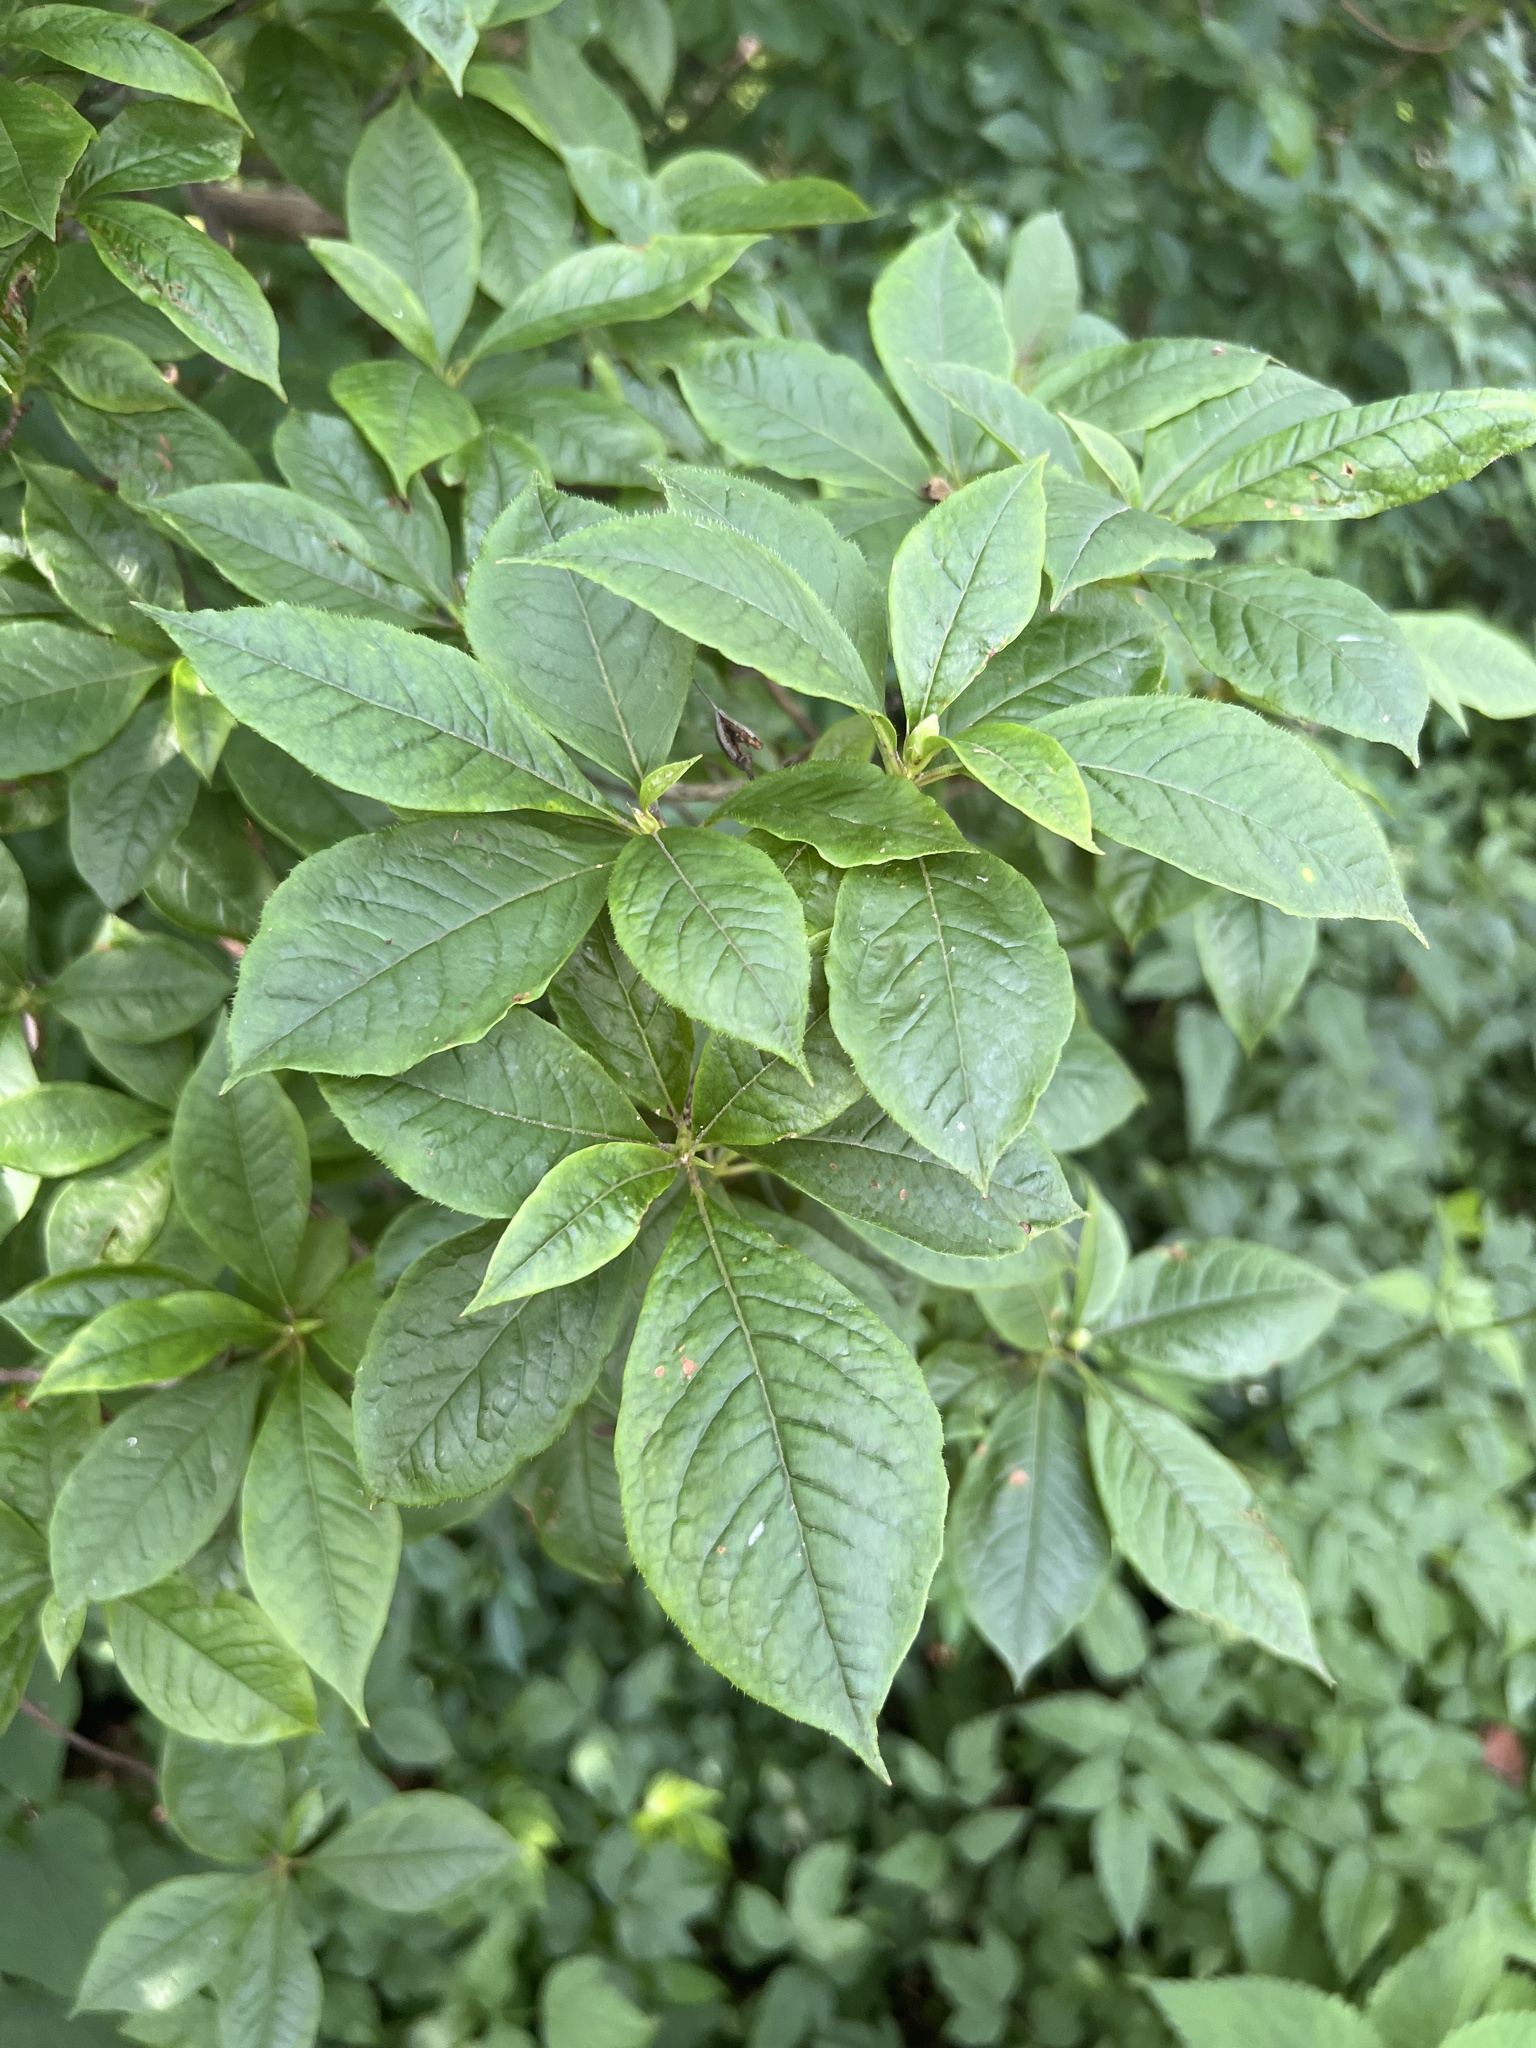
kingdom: Plantae
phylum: Tracheophyta
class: Magnoliopsida
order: Ericales
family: Ericaceae
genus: Rhododendron
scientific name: Rhododendron vaseyi
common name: Pink-shell azalea
